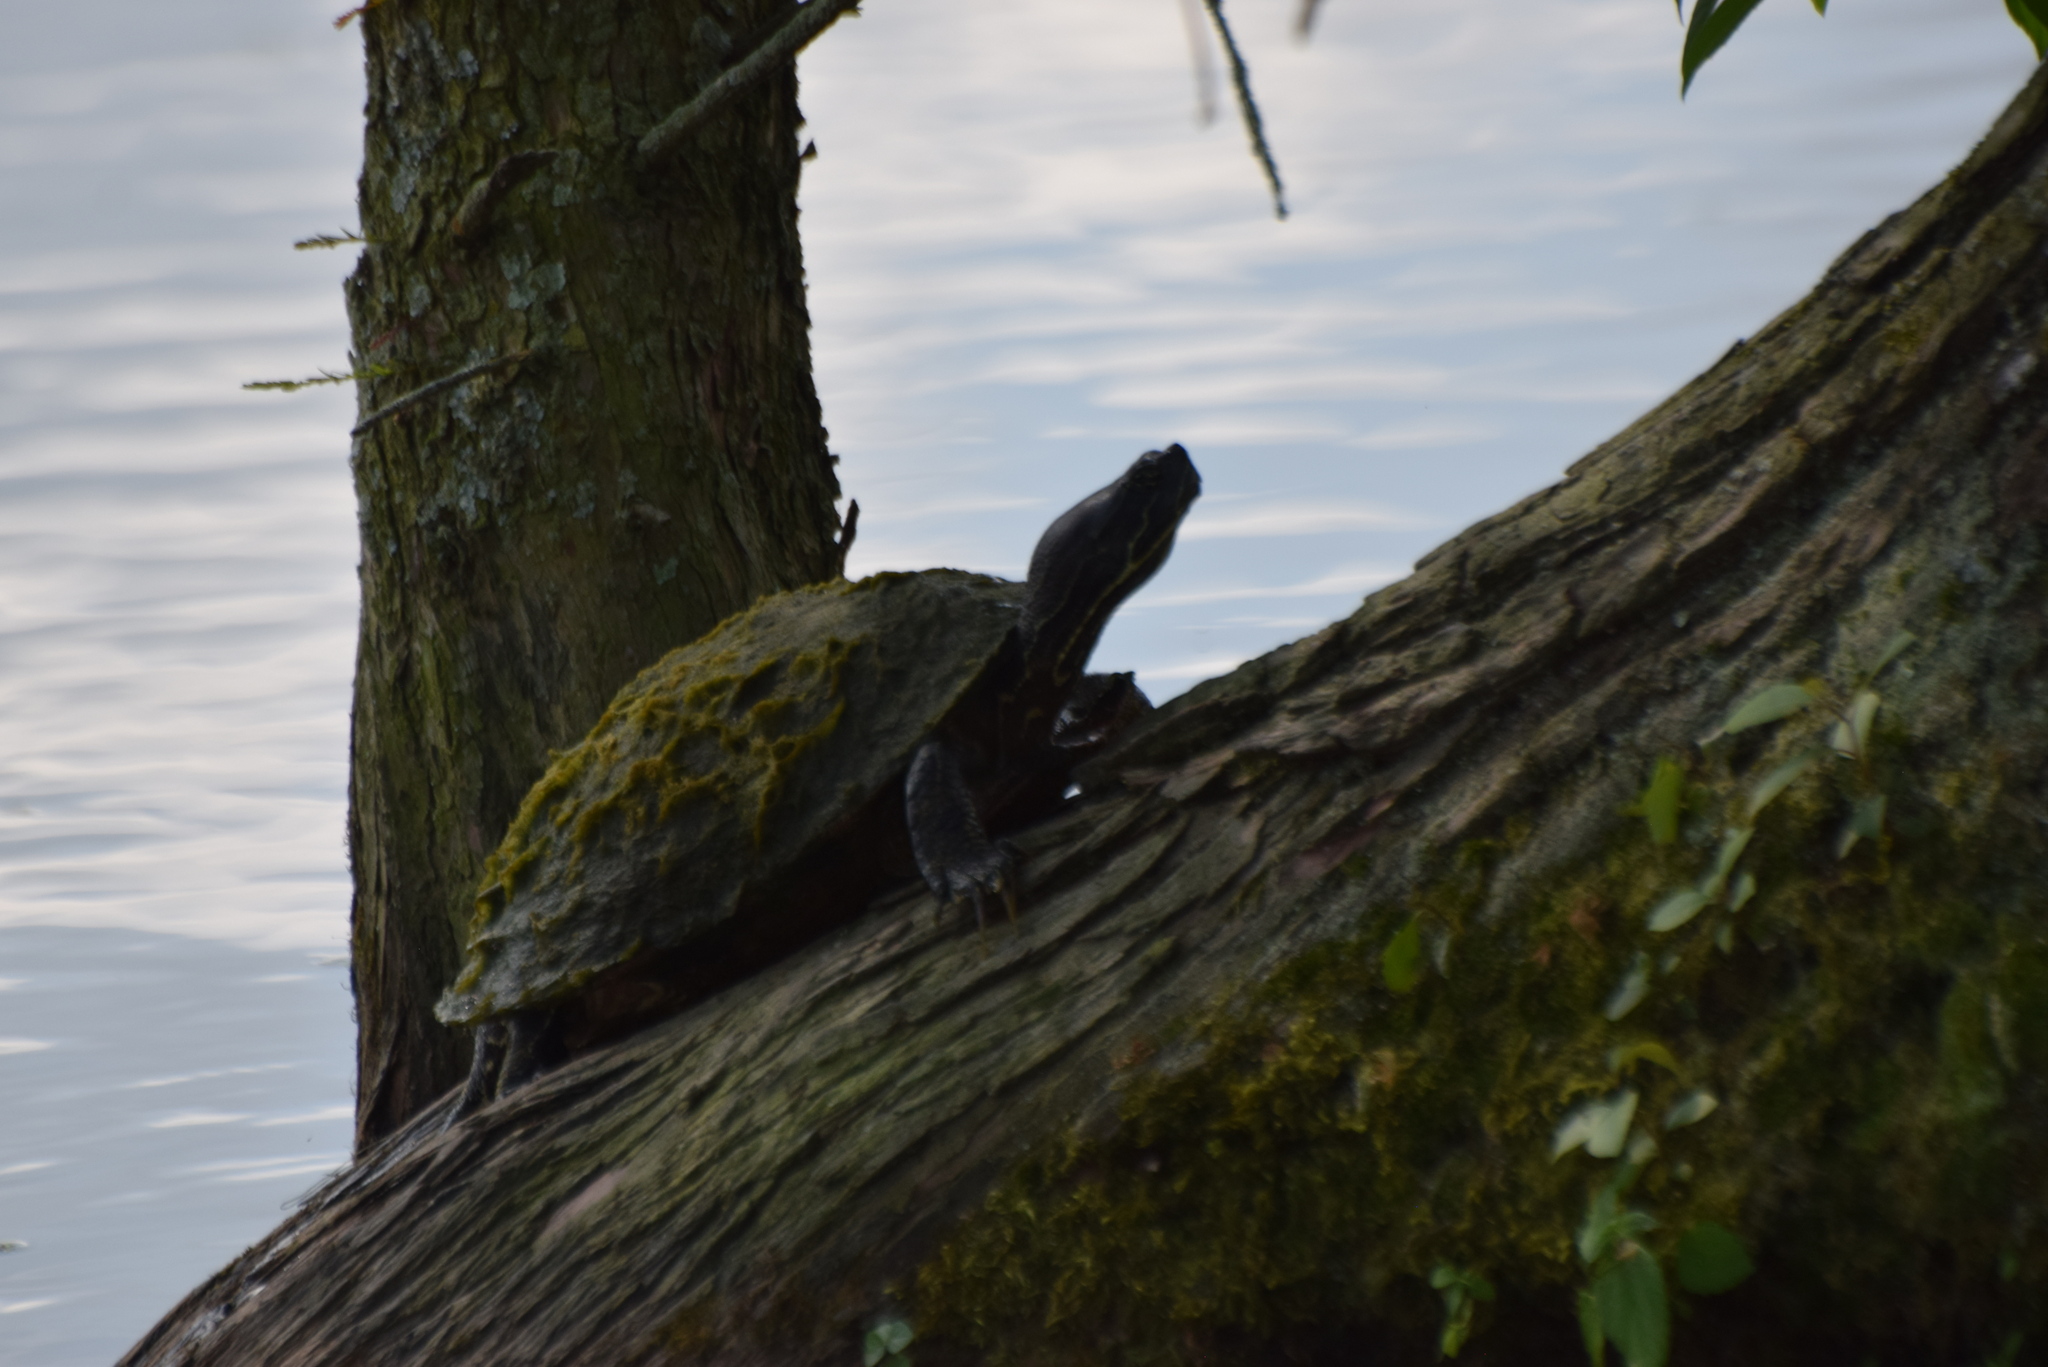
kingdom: Animalia
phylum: Chordata
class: Testudines
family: Emydidae
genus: Pseudemys
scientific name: Pseudemys rubriventris
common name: American red-bellied turtle
